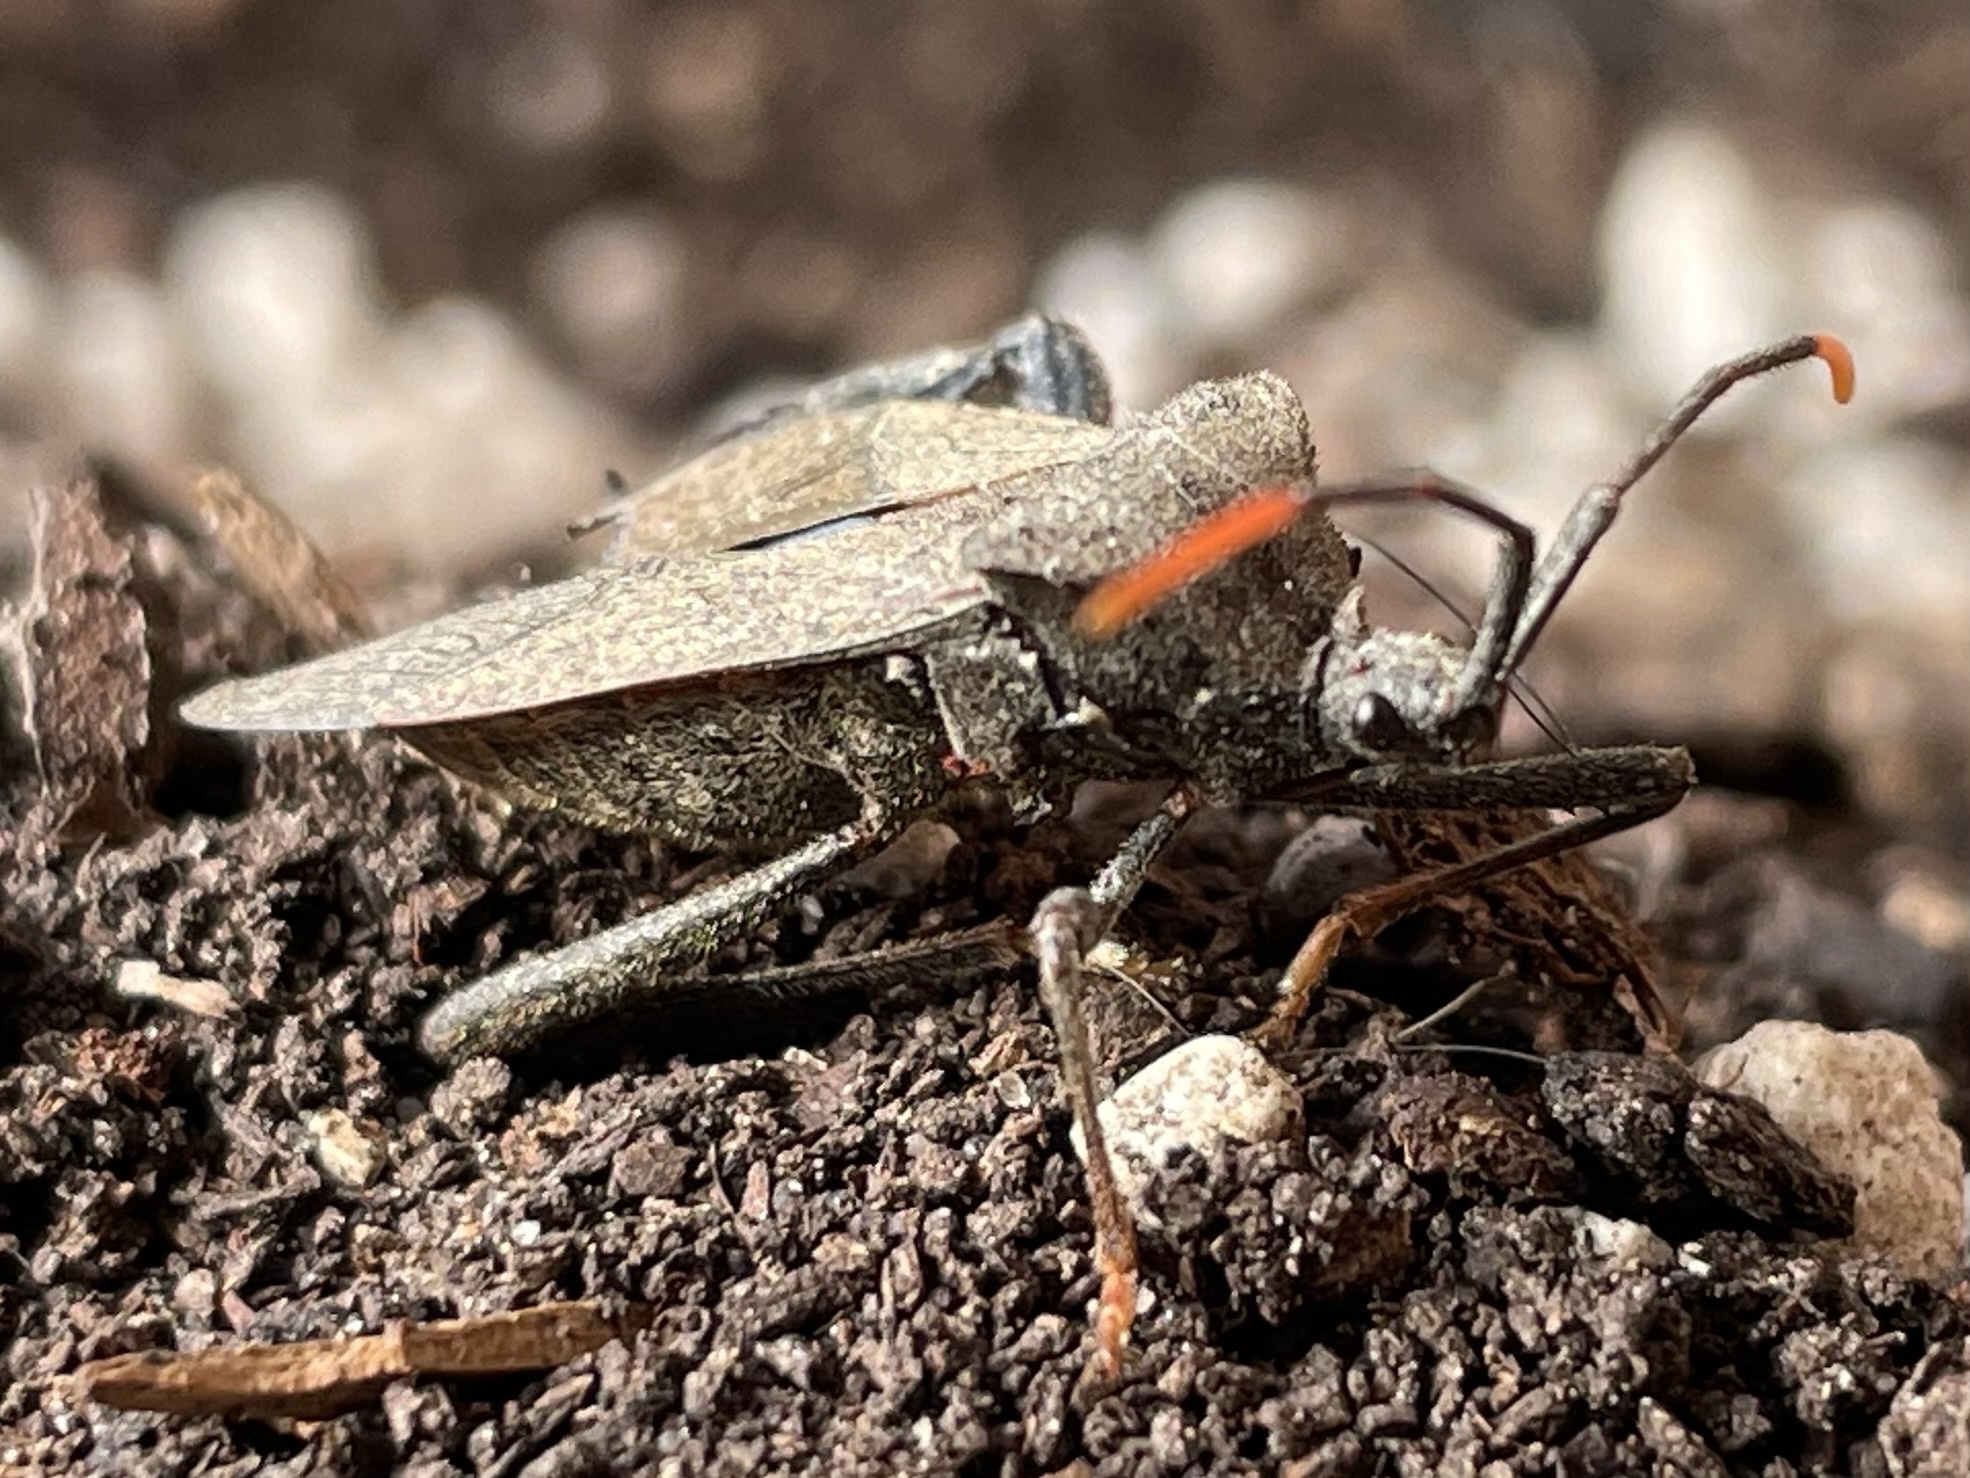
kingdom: Animalia
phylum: Arthropoda
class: Insecta
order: Hemiptera
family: Coreidae
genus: Acanthocephala
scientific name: Acanthocephala terminalis
